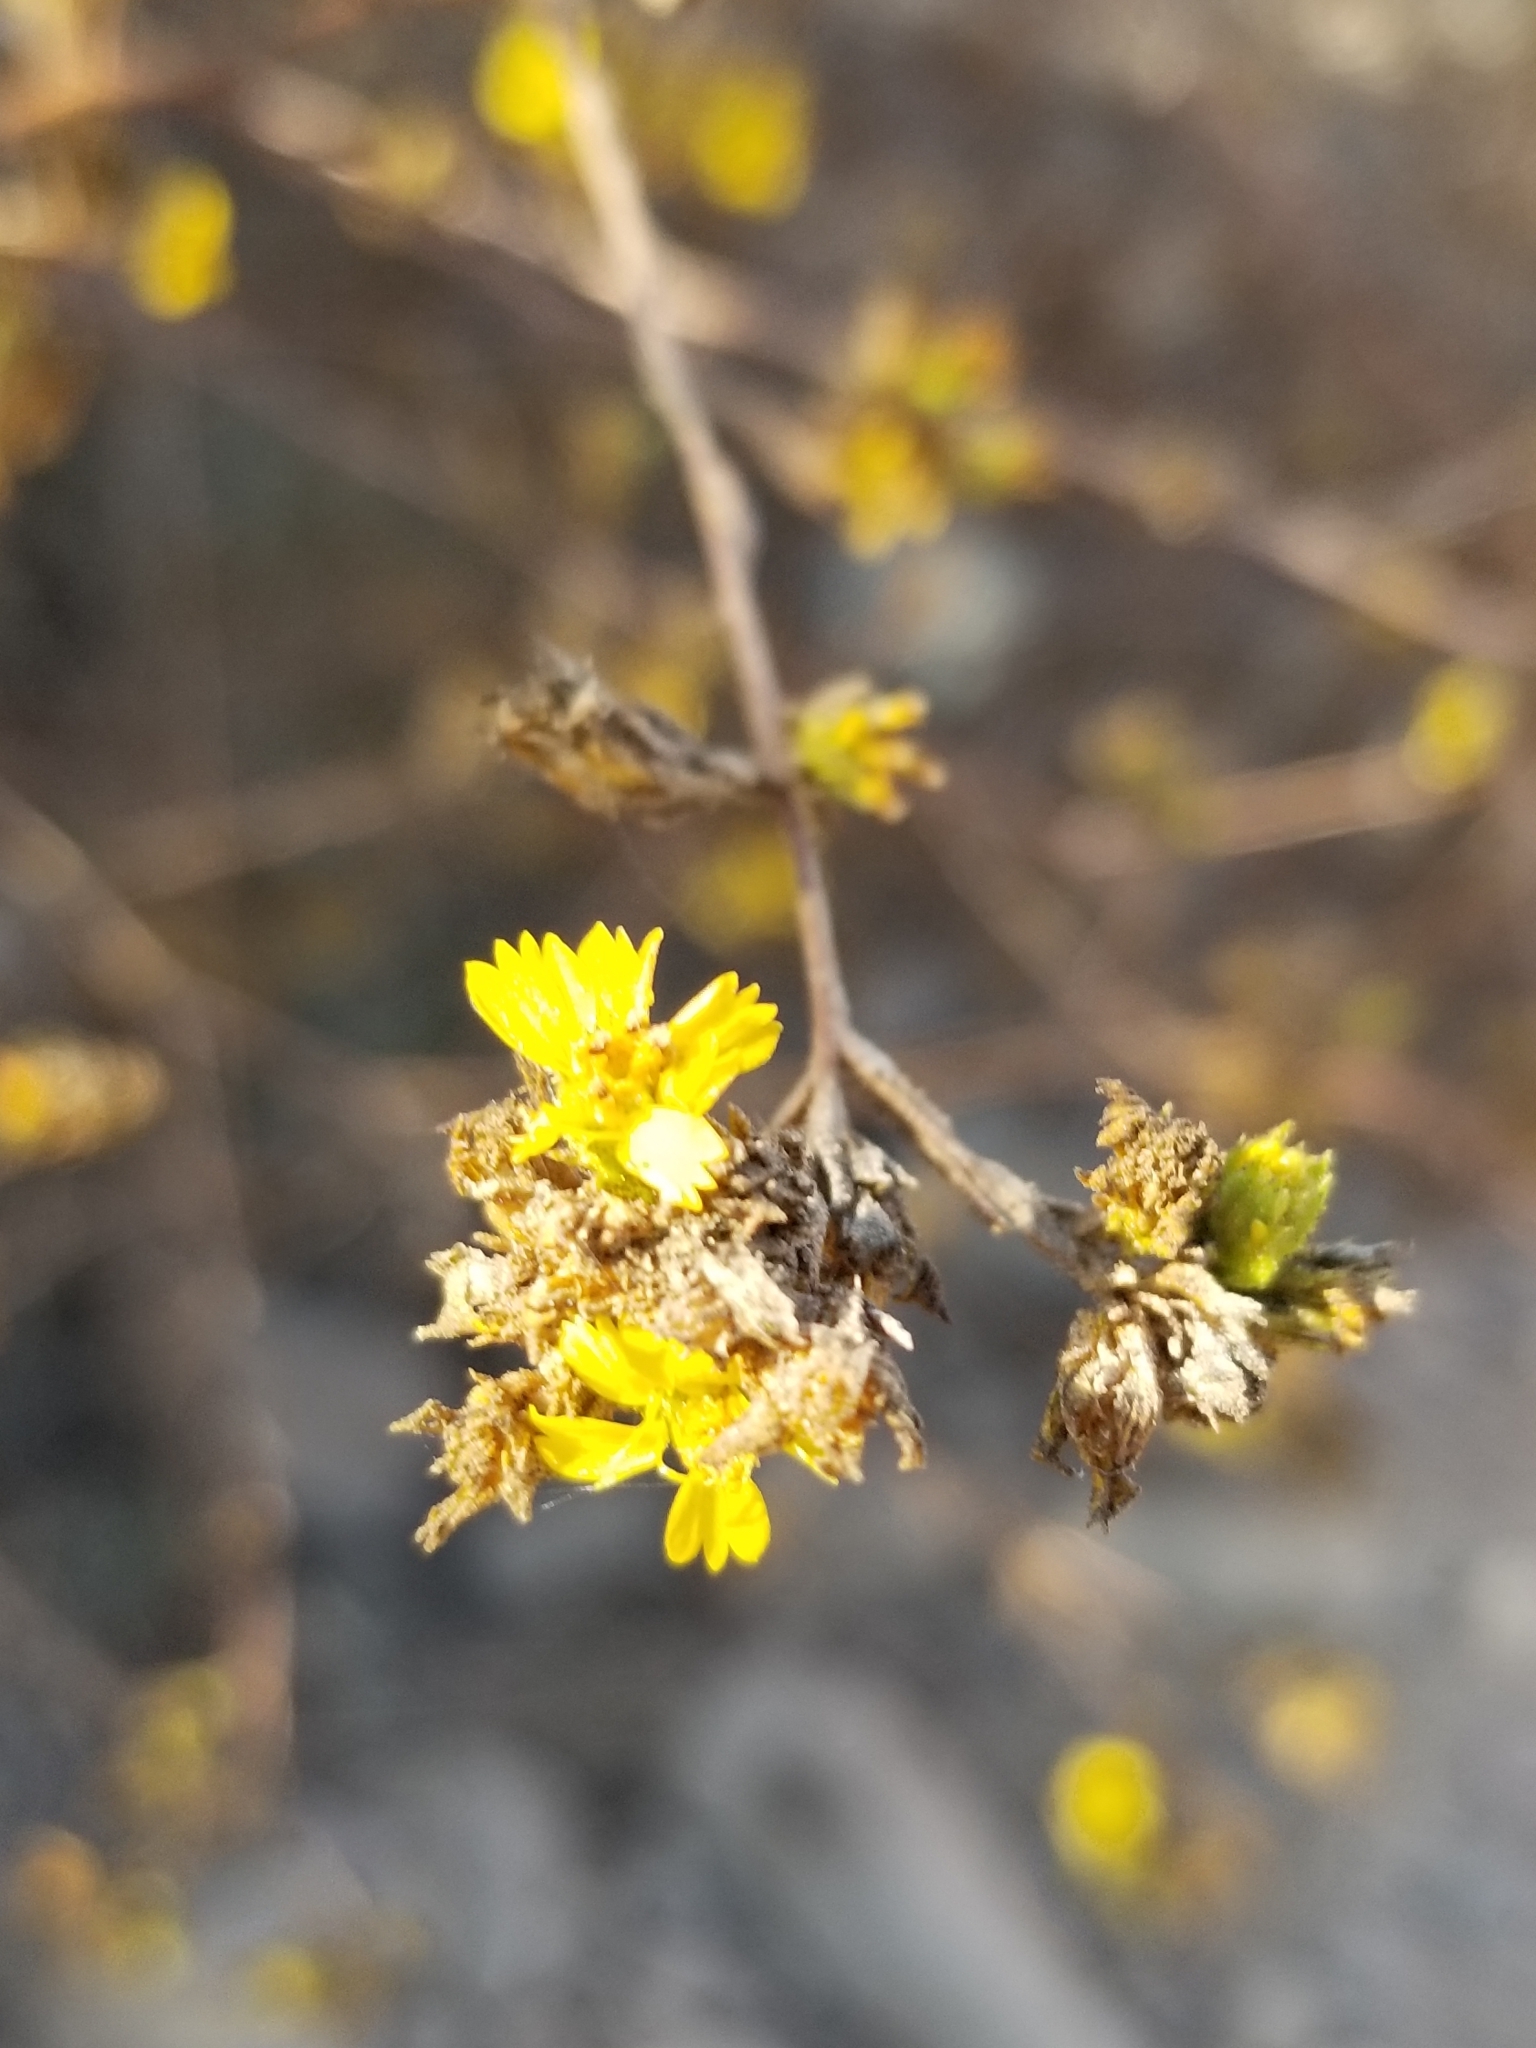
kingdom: Plantae
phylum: Tracheophyta
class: Magnoliopsida
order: Asterales
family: Asteraceae
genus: Deinandra
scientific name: Deinandra fasciculata
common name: Clustered tarweed
